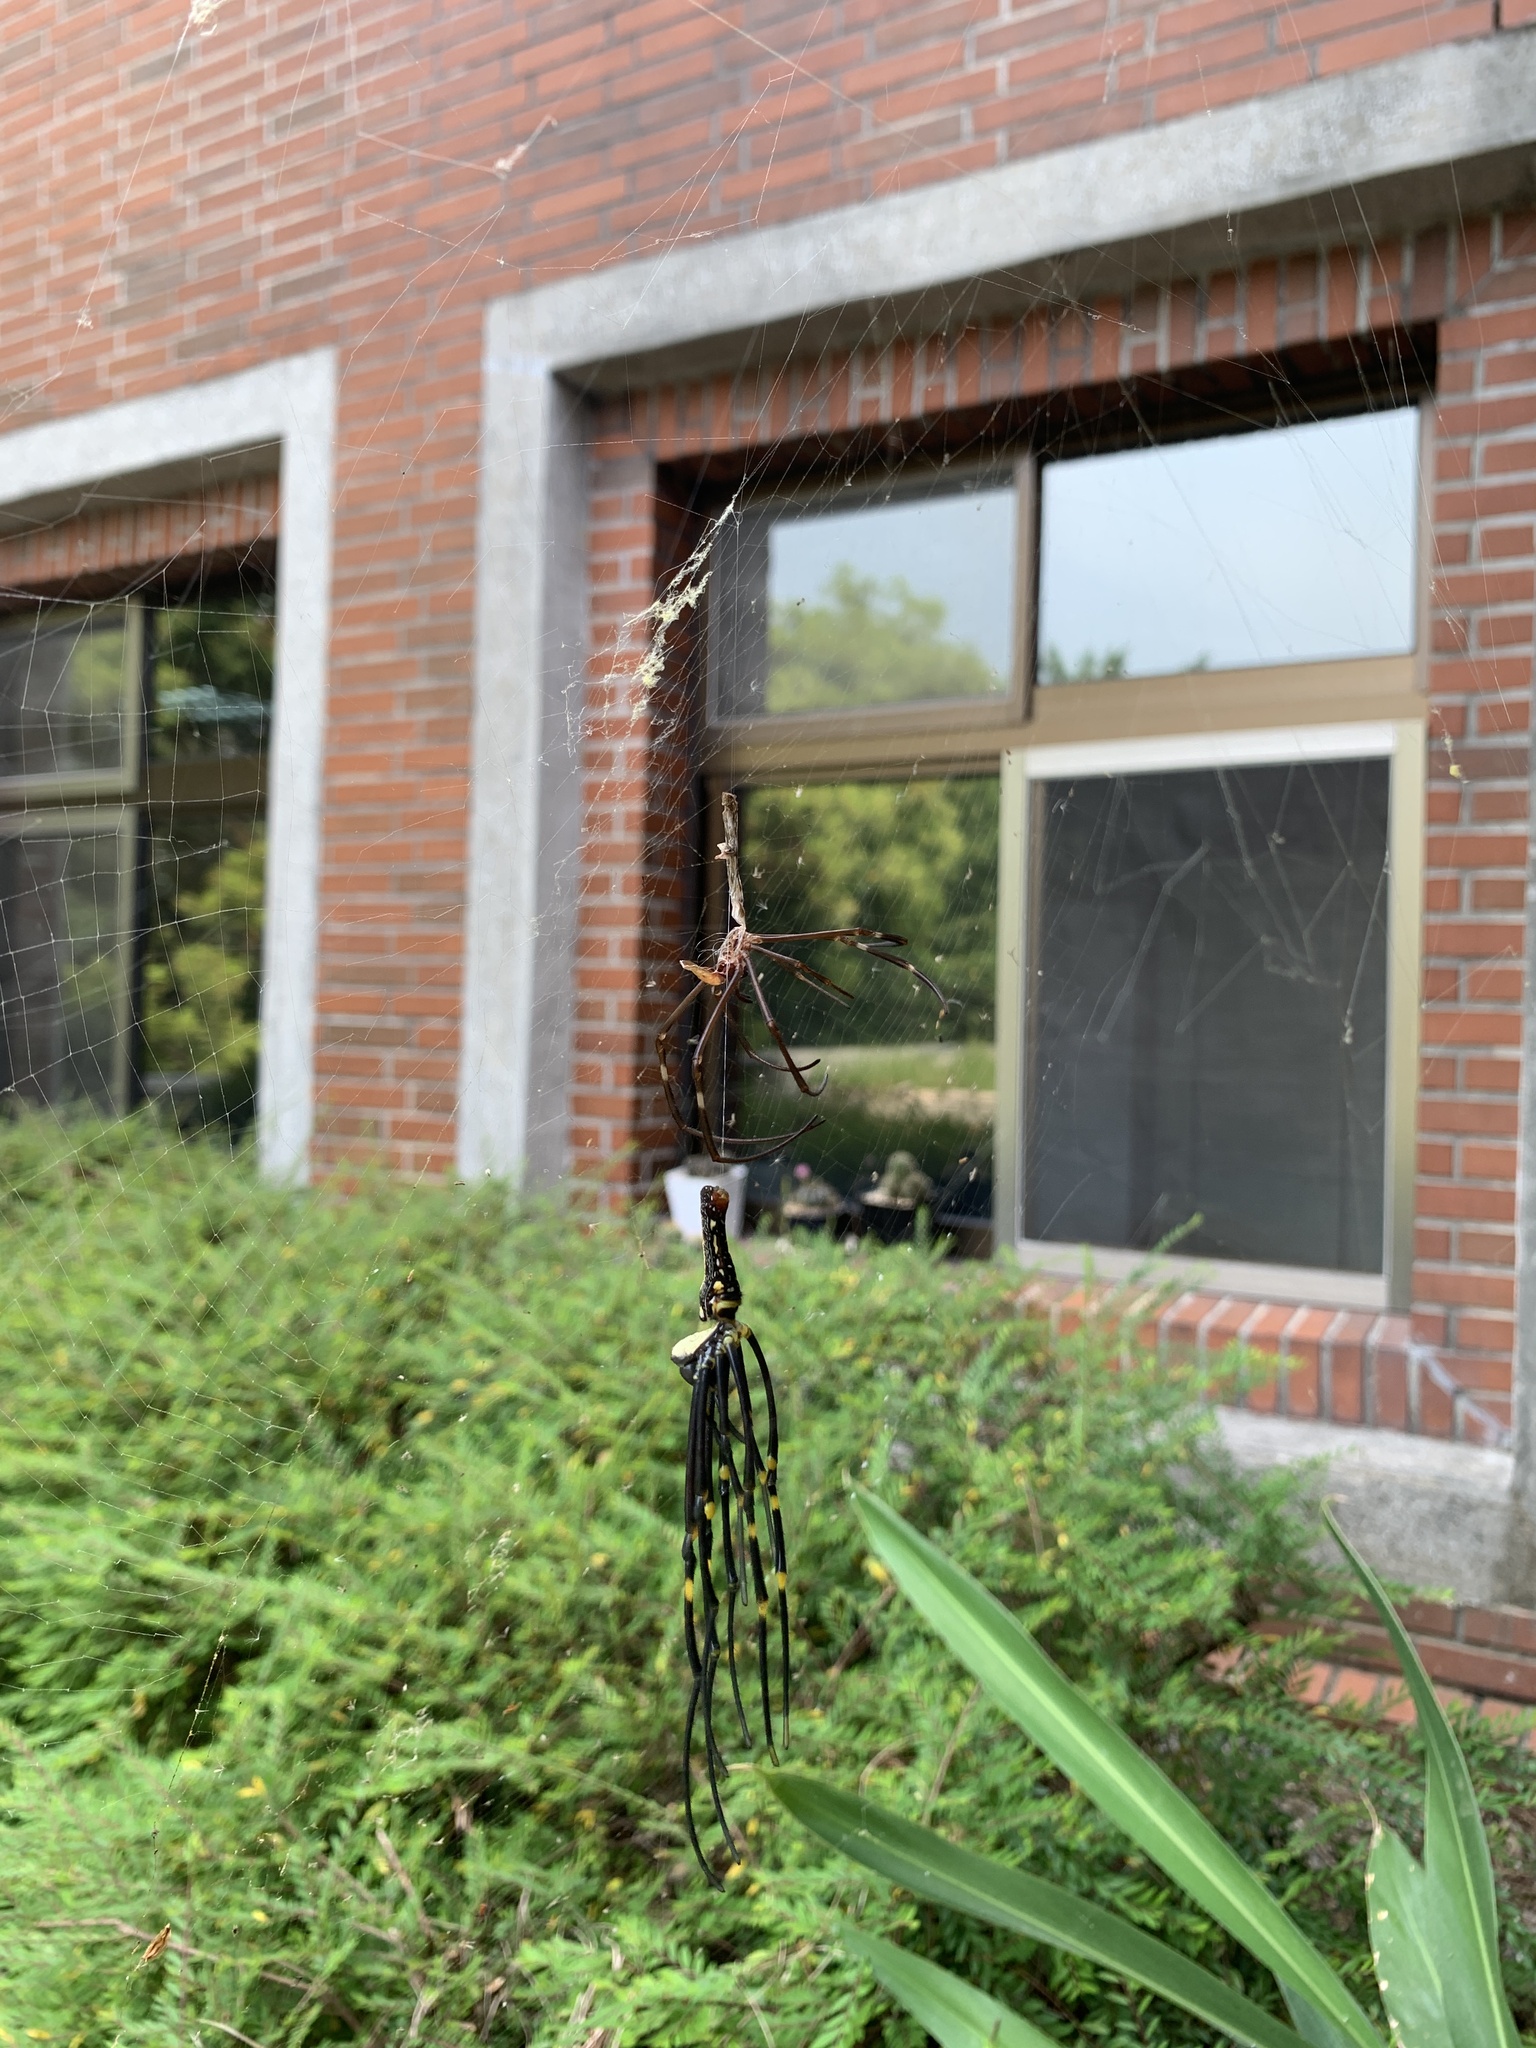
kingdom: Animalia
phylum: Arthropoda
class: Arachnida
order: Araneae
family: Araneidae
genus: Nephila
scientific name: Nephila pilipes
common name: Giant golden orb weaver
